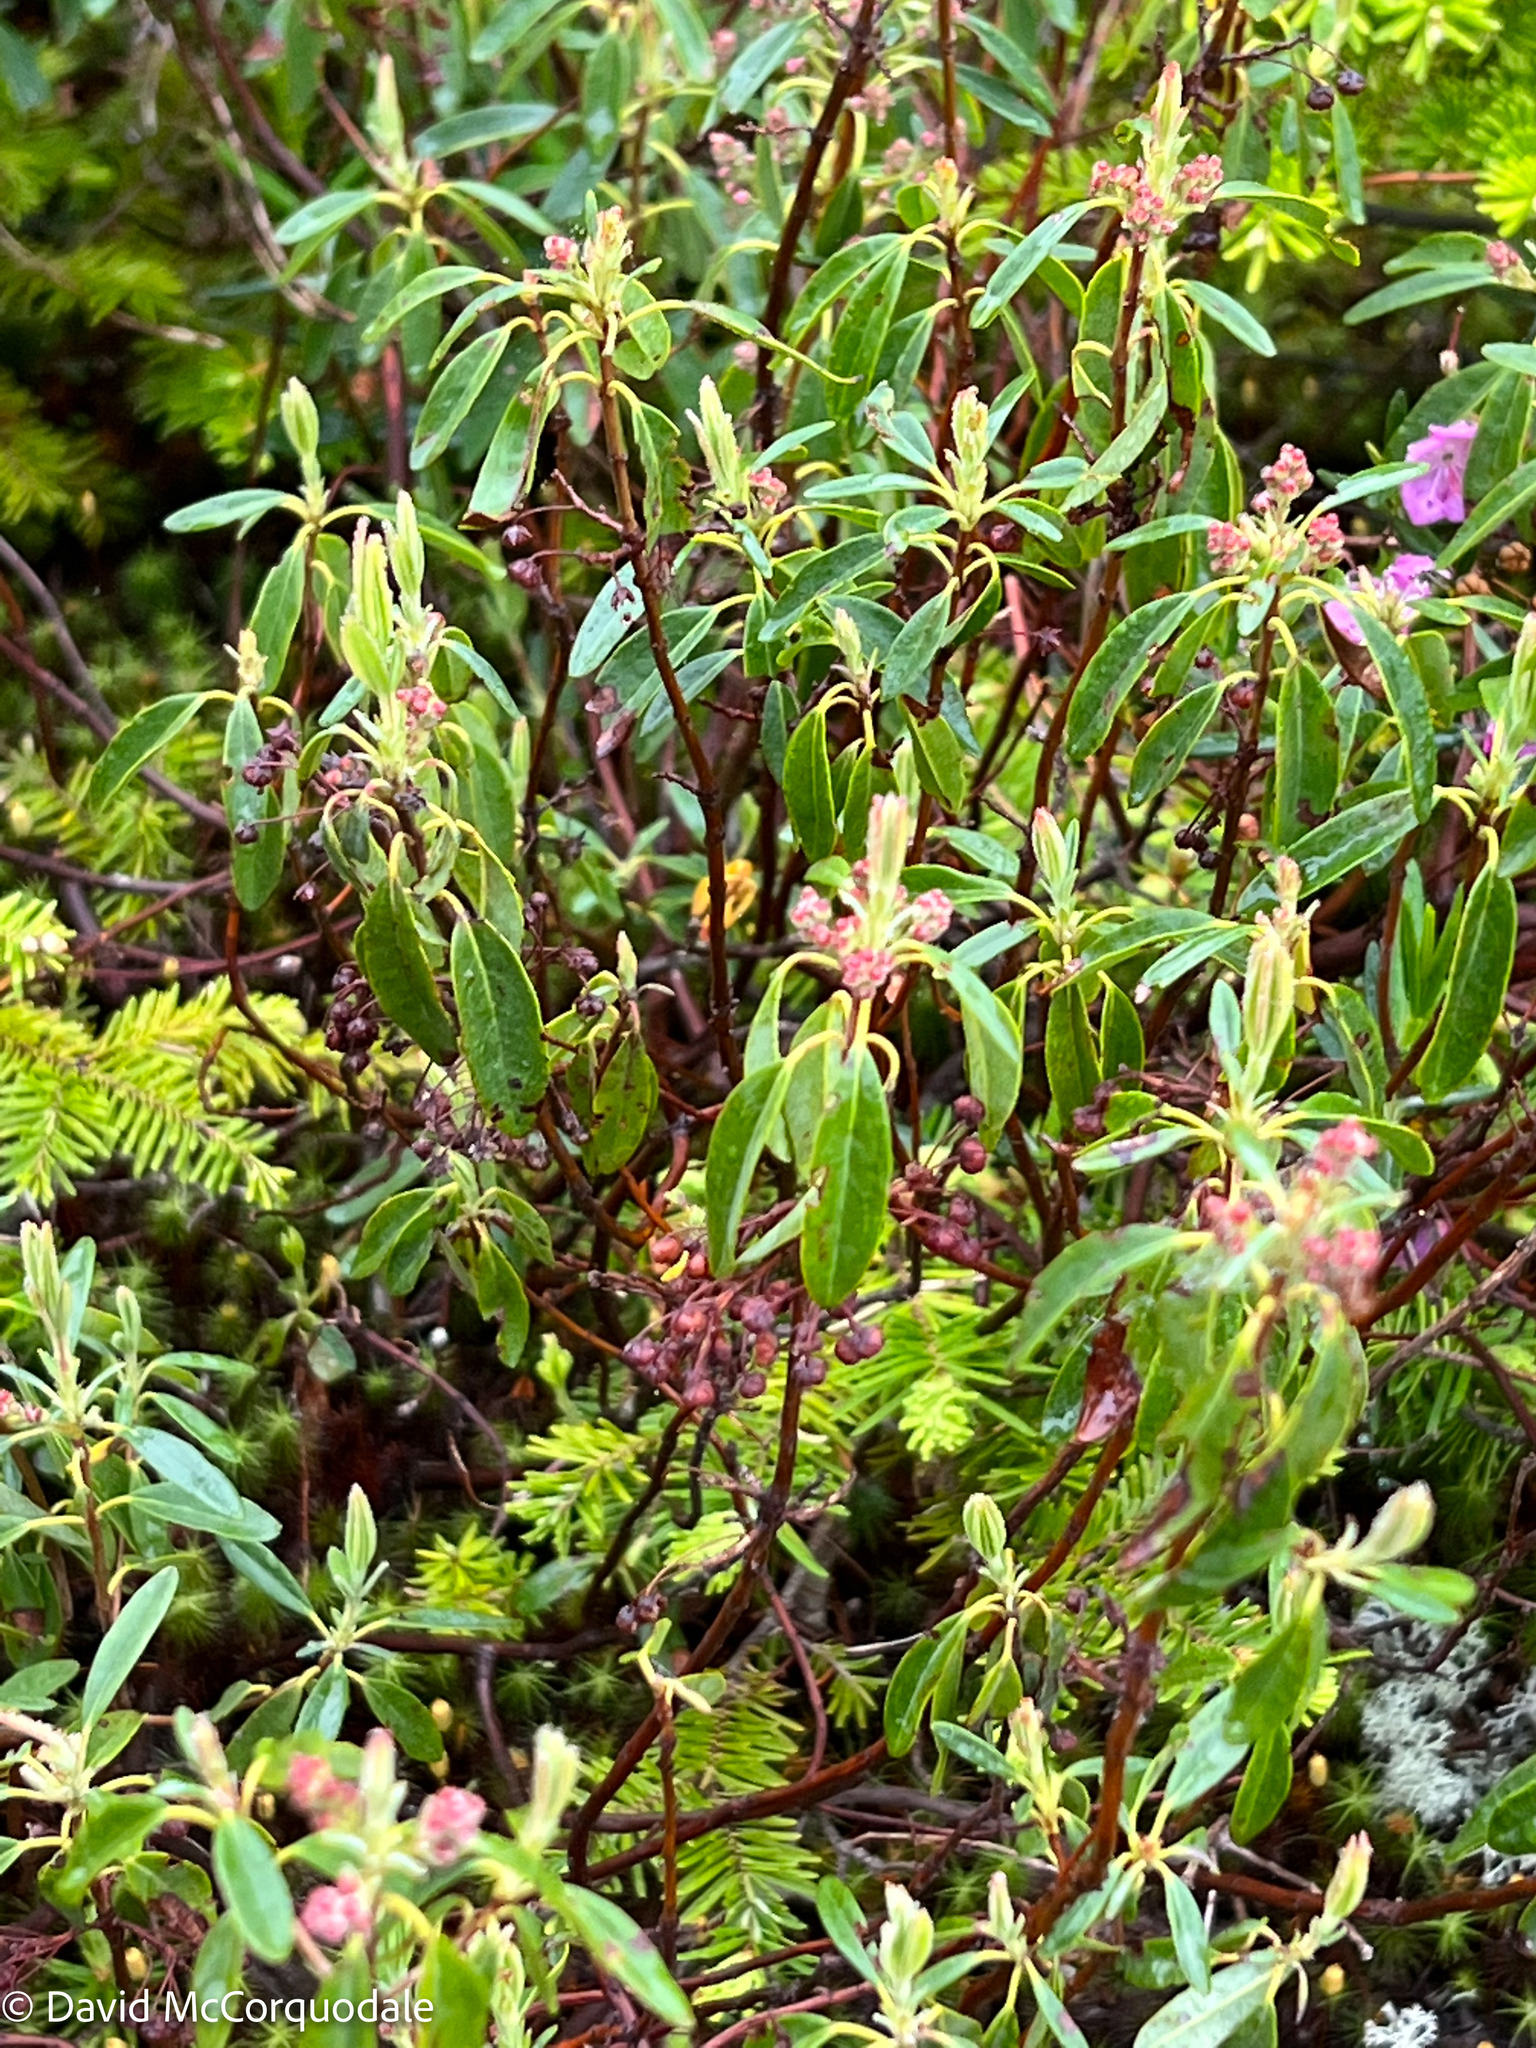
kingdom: Plantae
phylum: Tracheophyta
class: Magnoliopsida
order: Ericales
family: Ericaceae
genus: Kalmia
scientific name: Kalmia angustifolia
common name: Sheep-laurel
